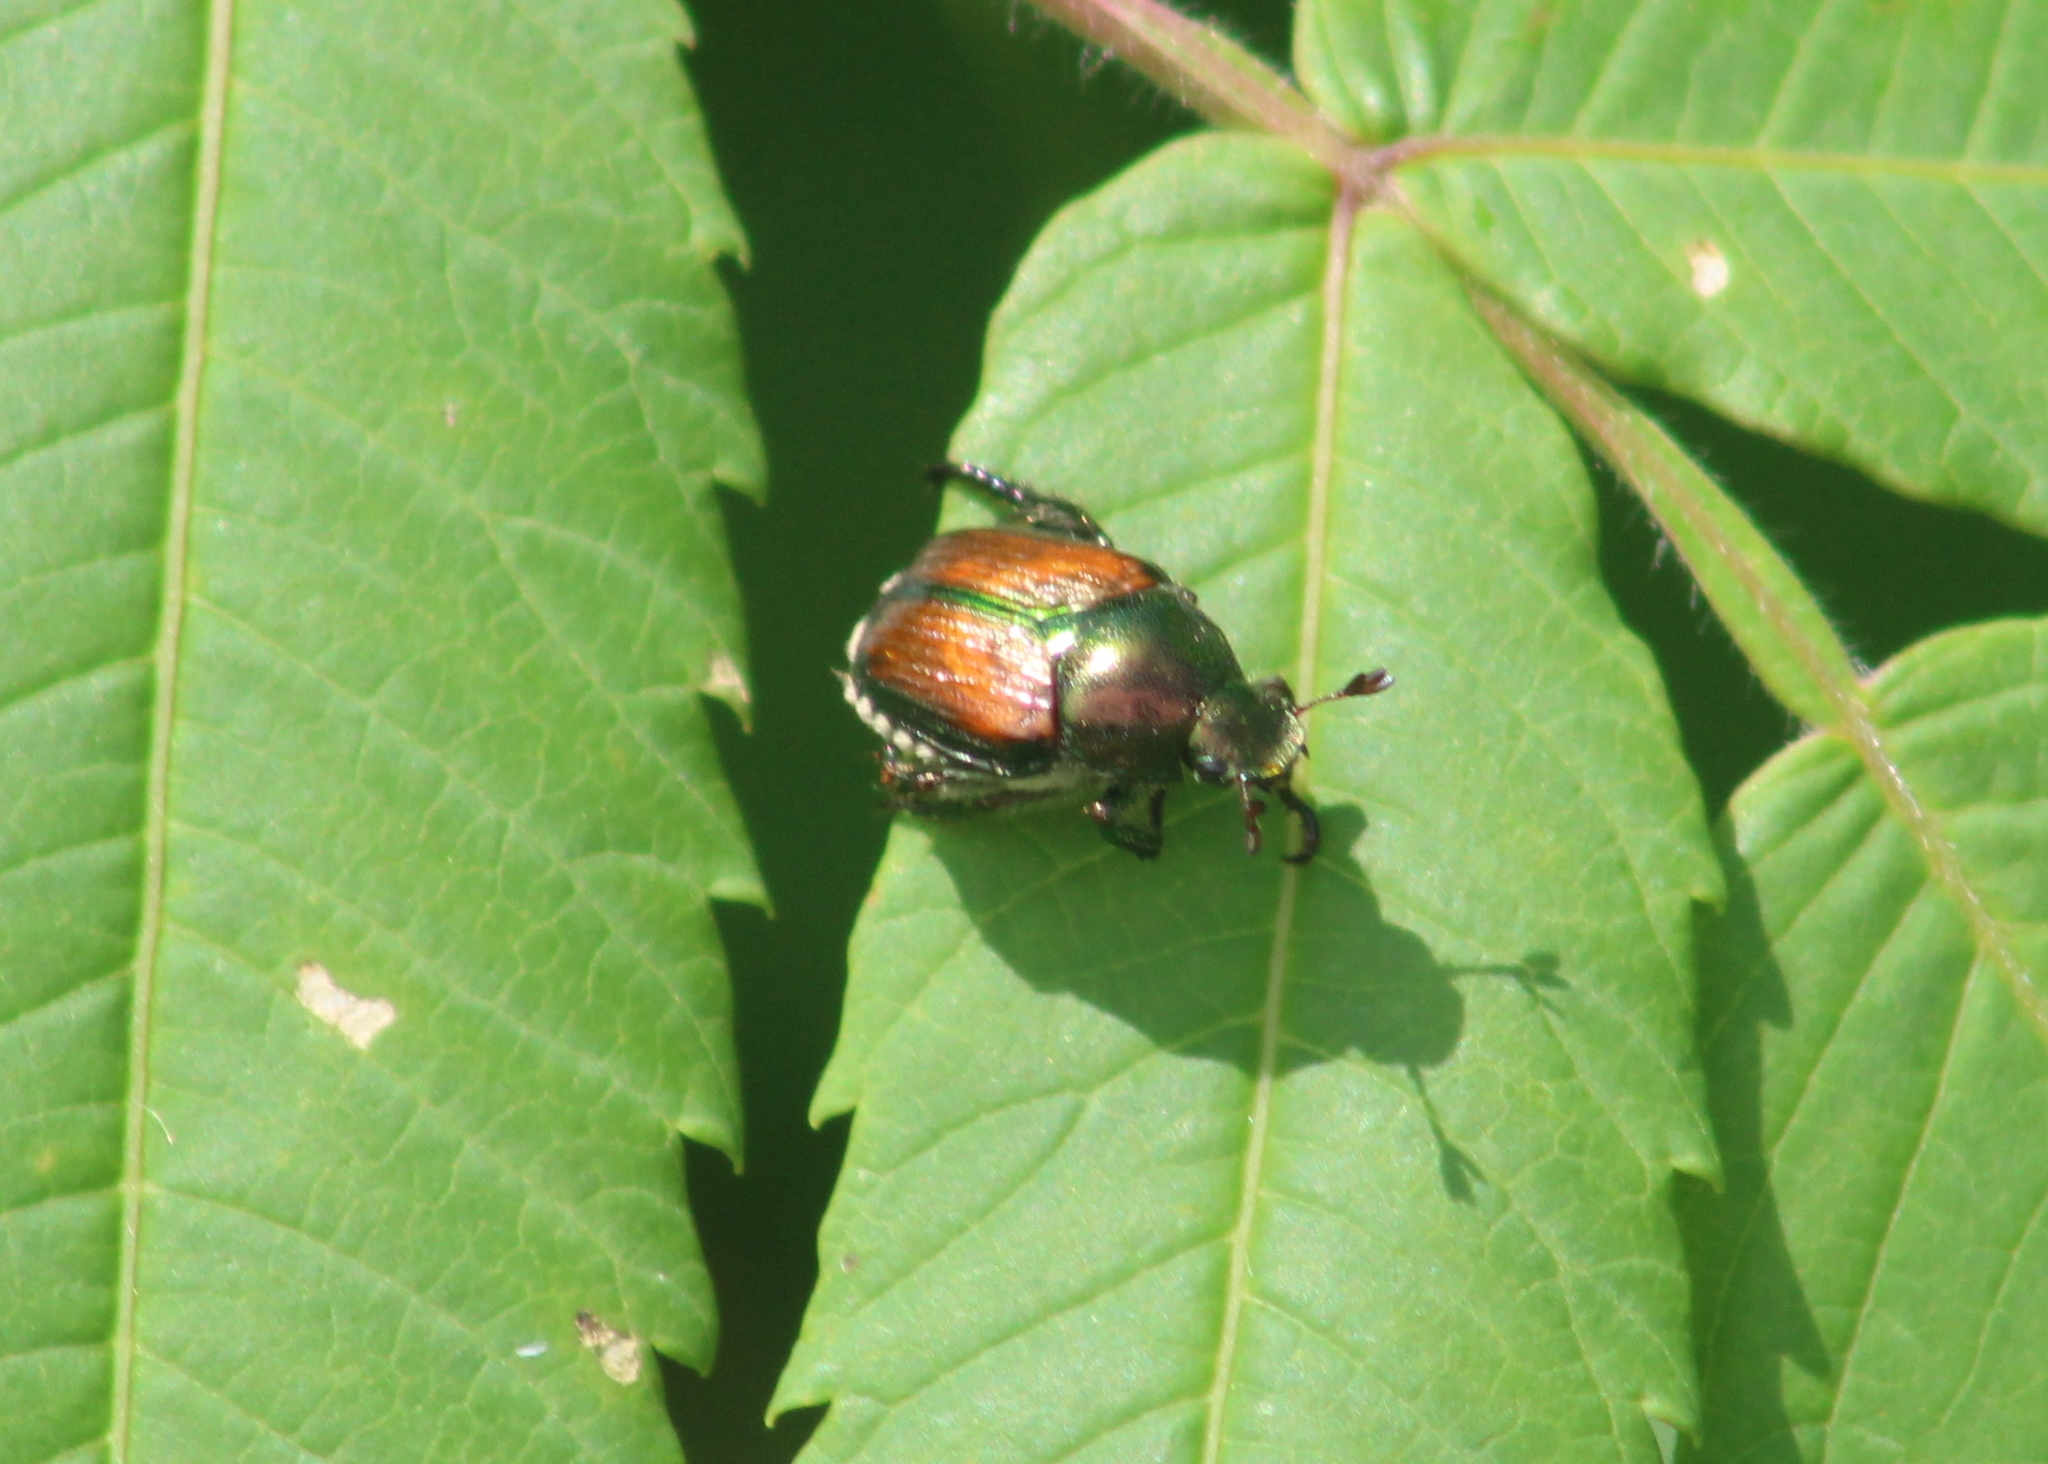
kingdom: Animalia
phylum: Arthropoda
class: Insecta
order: Coleoptera
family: Scarabaeidae
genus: Popillia
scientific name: Popillia japonica
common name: Japanese beetle
